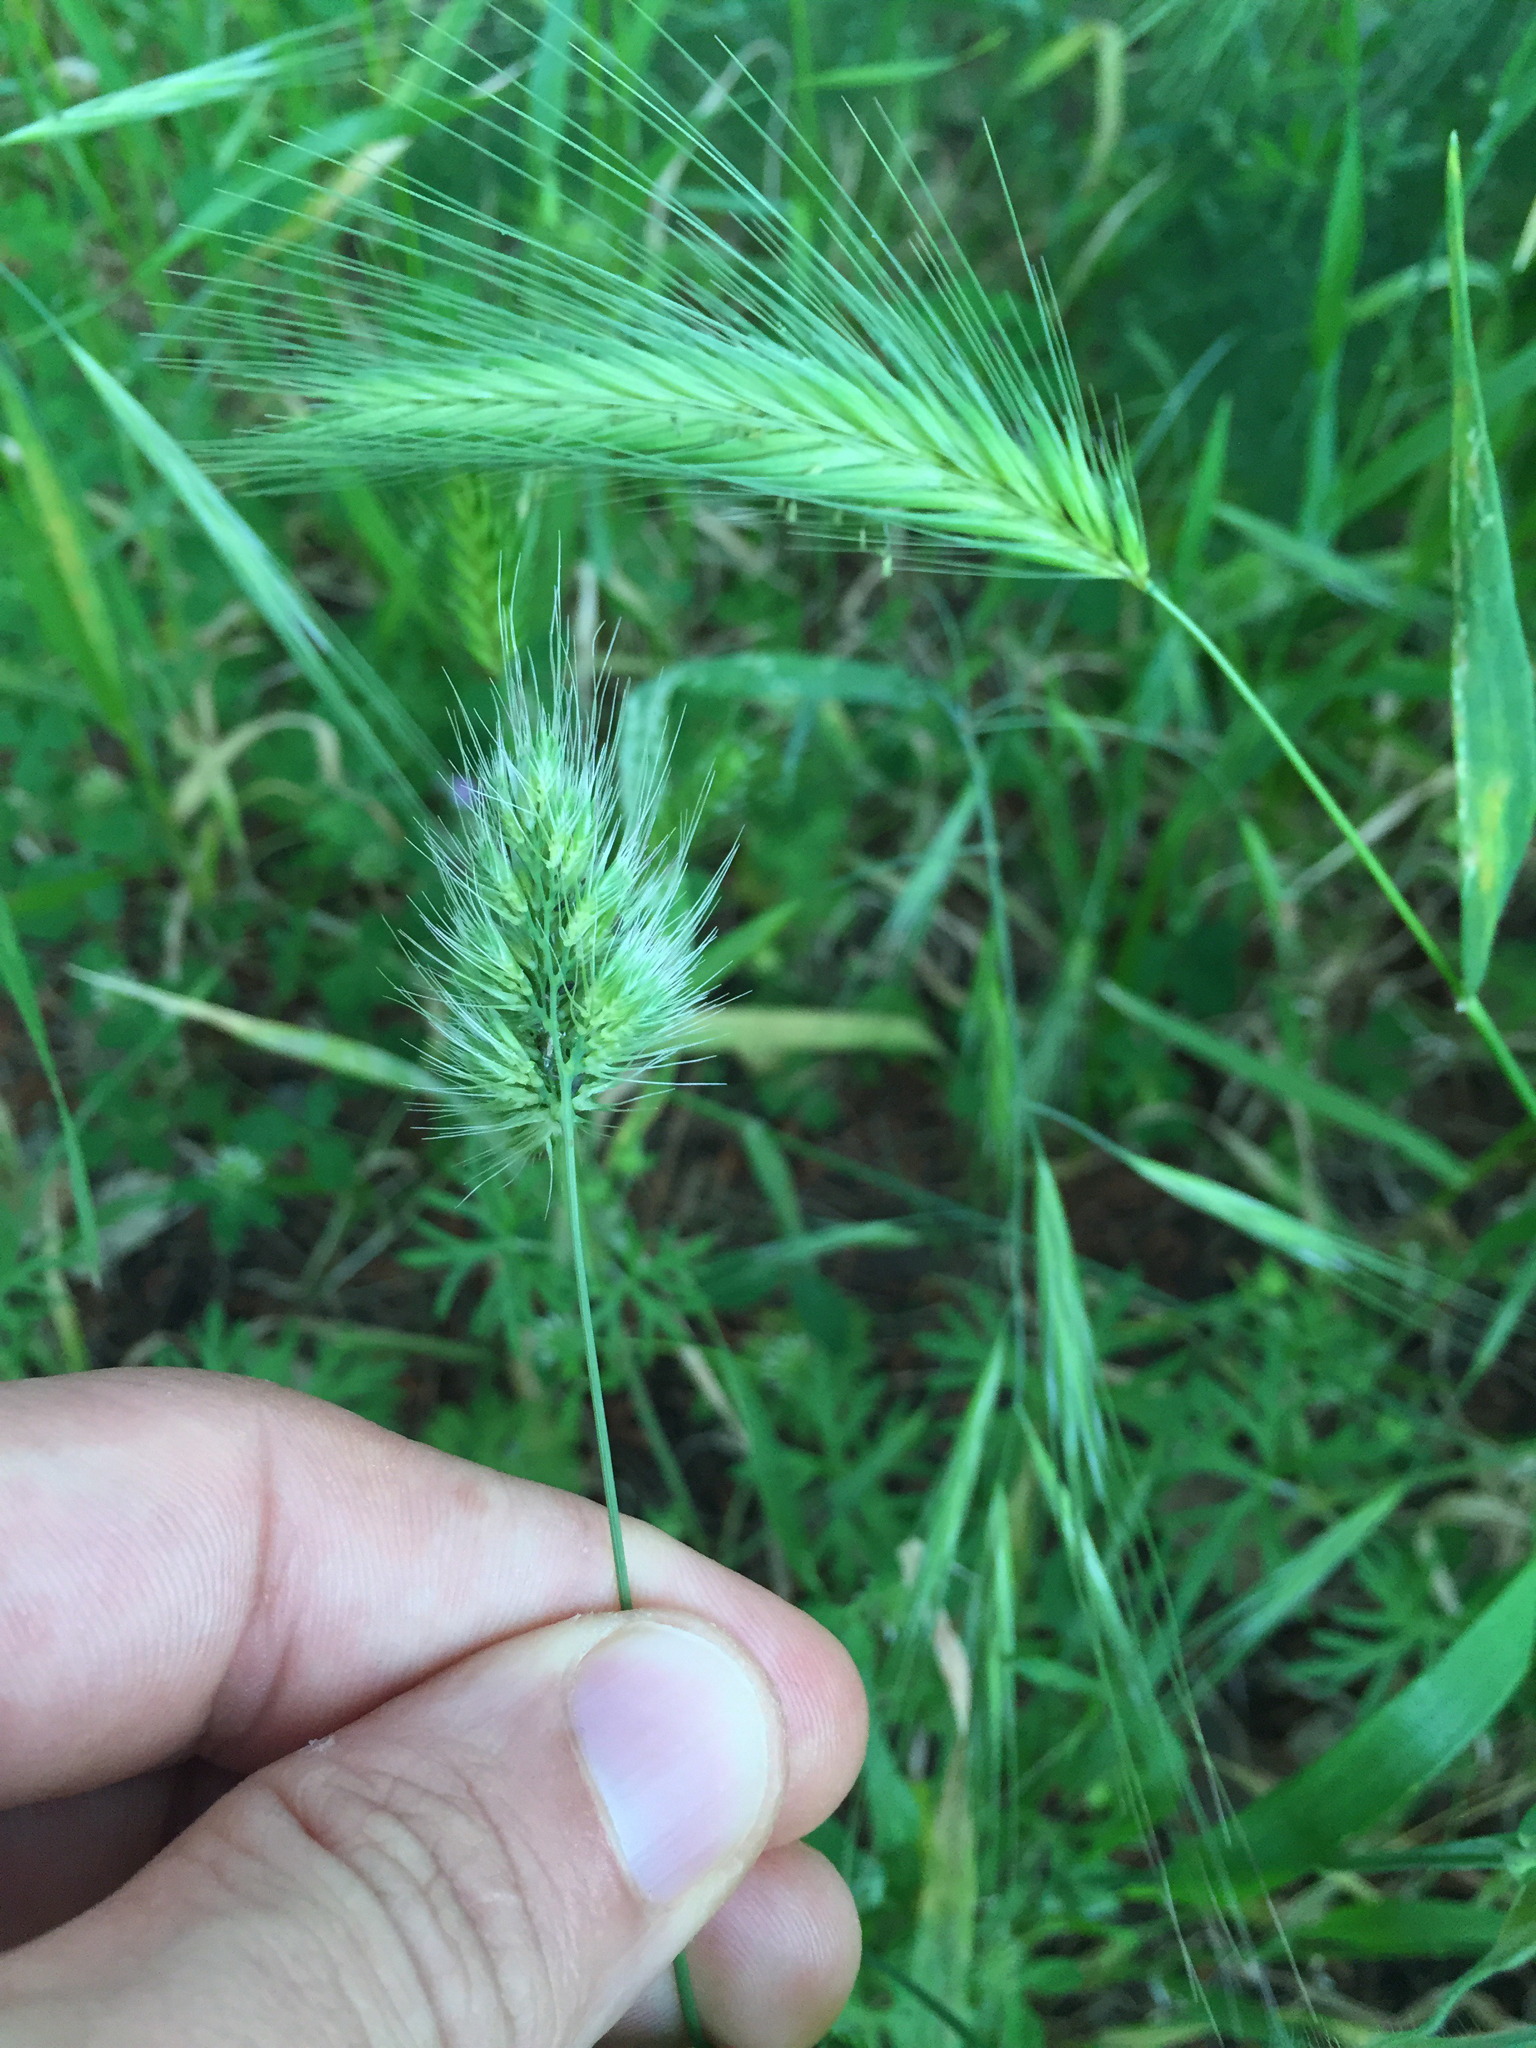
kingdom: Plantae
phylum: Tracheophyta
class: Liliopsida
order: Poales
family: Poaceae
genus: Cynosurus
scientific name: Cynosurus echinatus
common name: Rough dog's-tail
